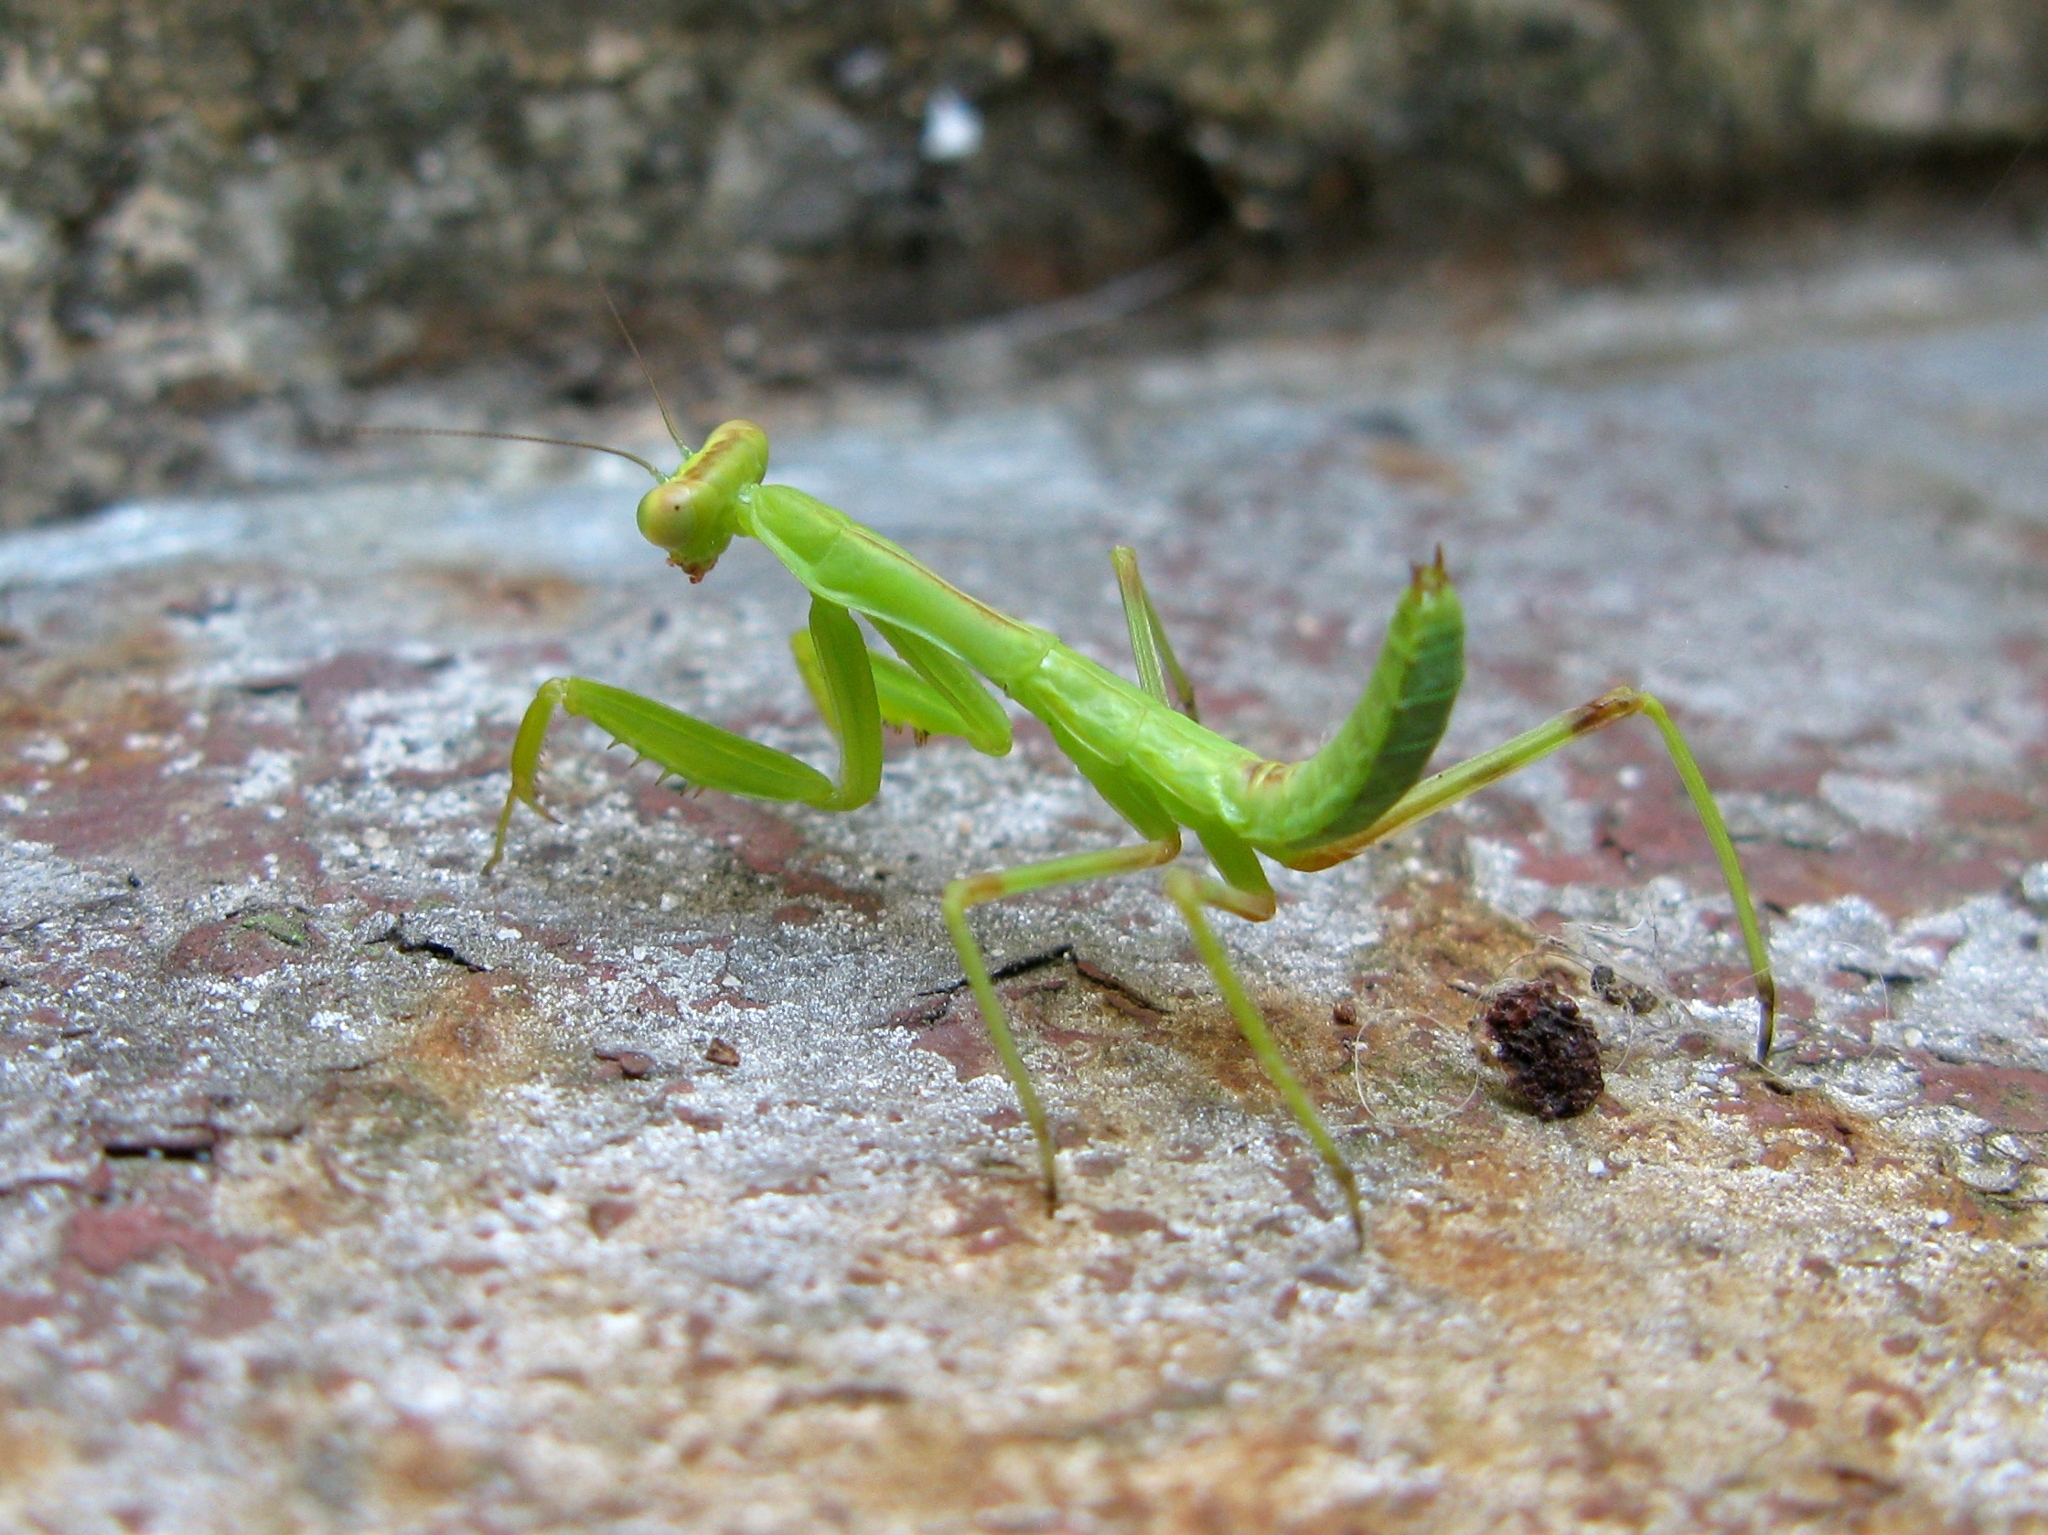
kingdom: Animalia
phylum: Arthropoda
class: Insecta
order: Mantodea
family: Mantidae
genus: Hierodula
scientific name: Hierodula transcaucasica
